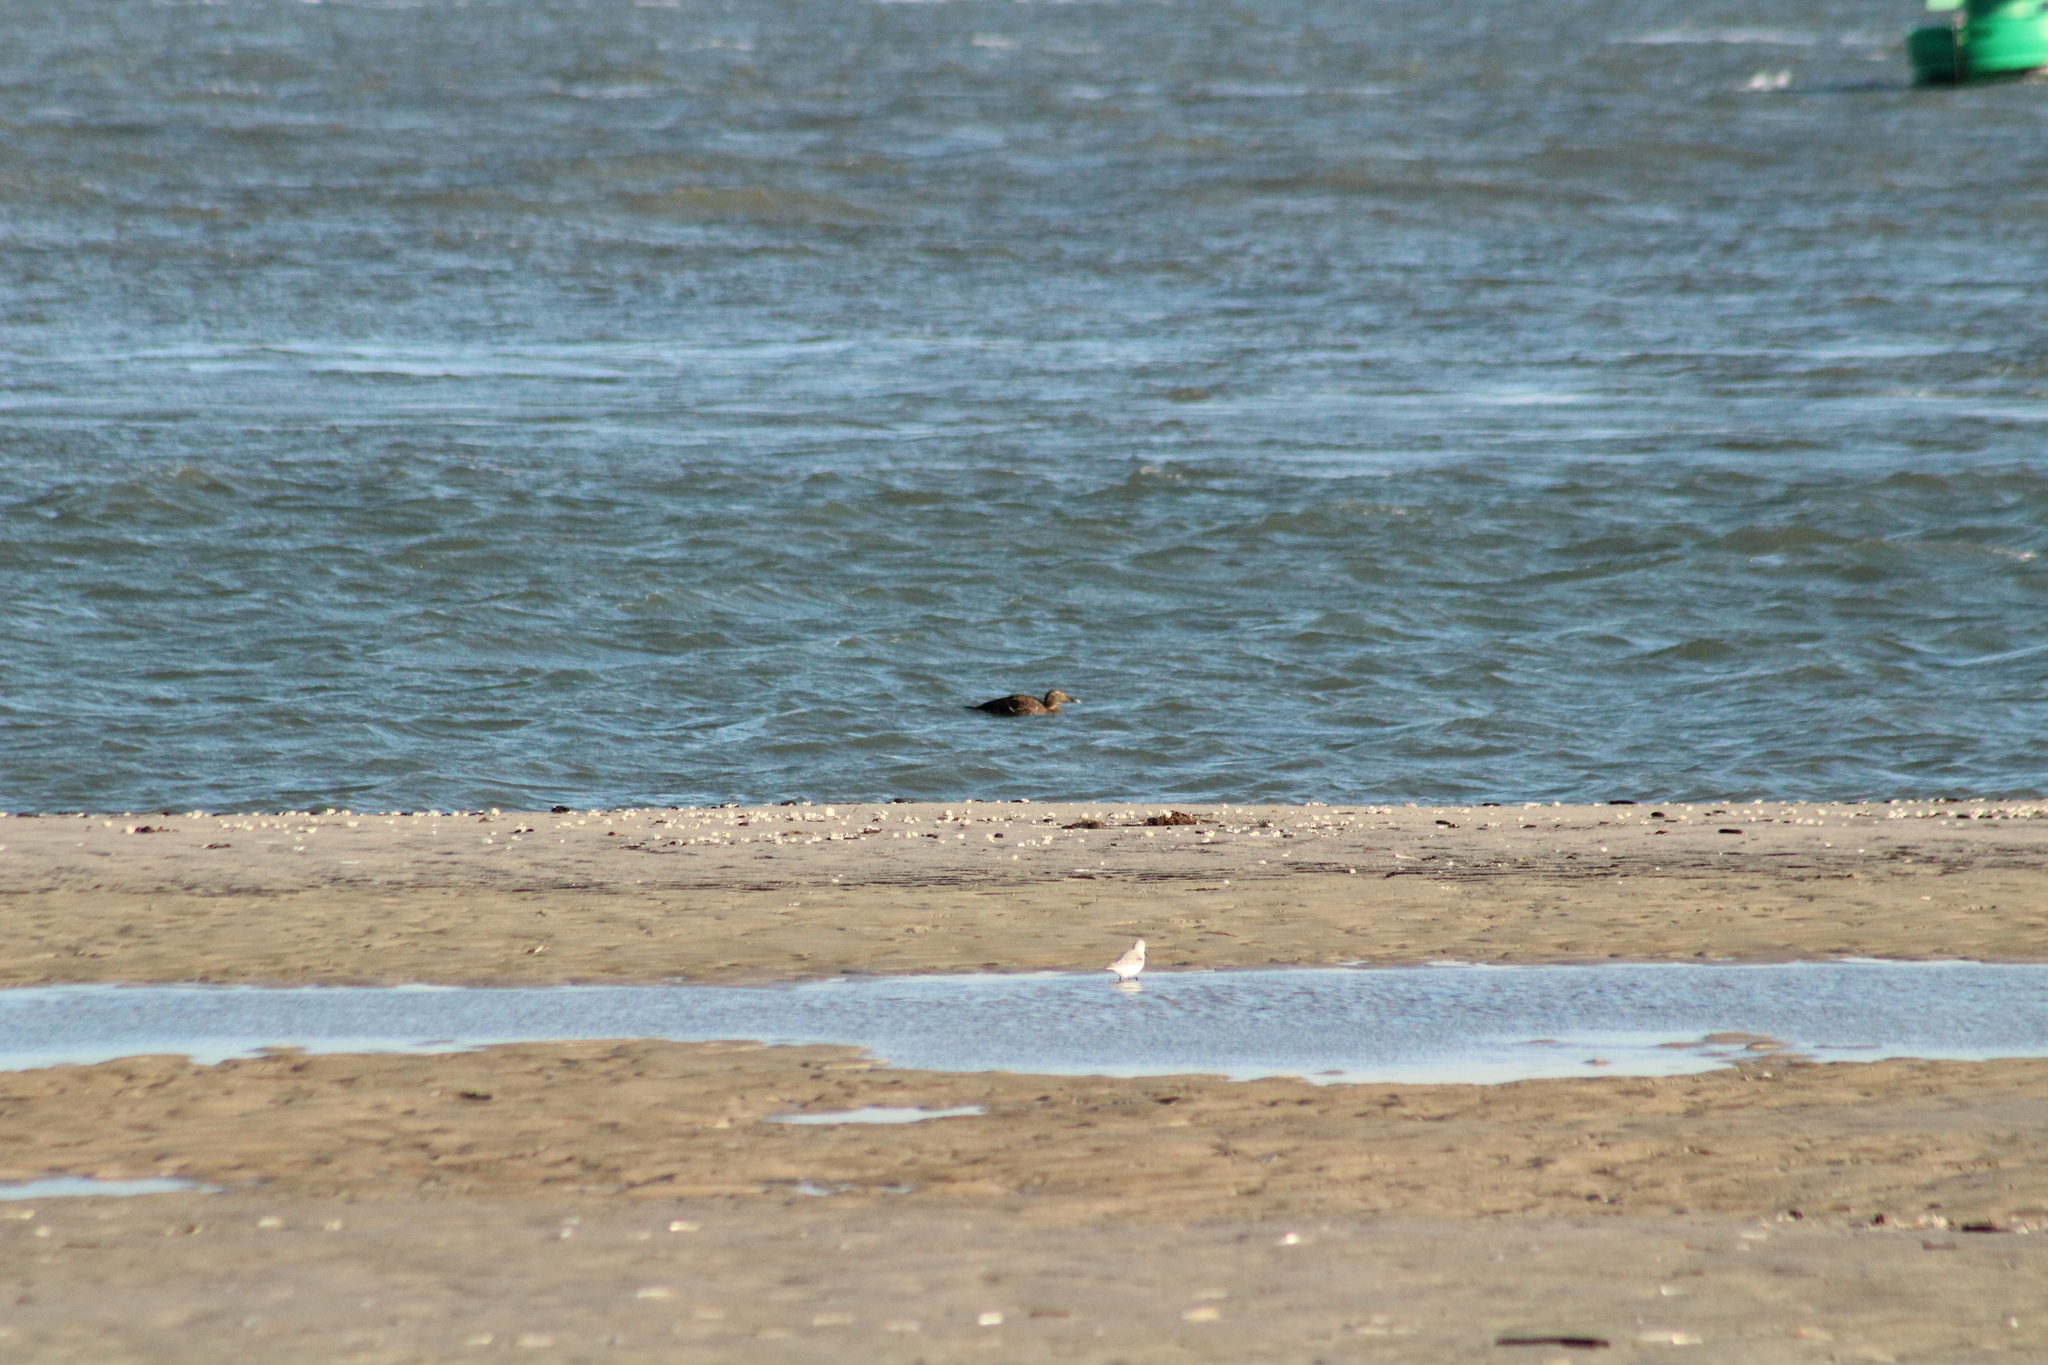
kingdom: Animalia
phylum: Chordata
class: Aves
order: Anseriformes
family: Anatidae
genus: Somateria
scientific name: Somateria mollissima
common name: Common eider
